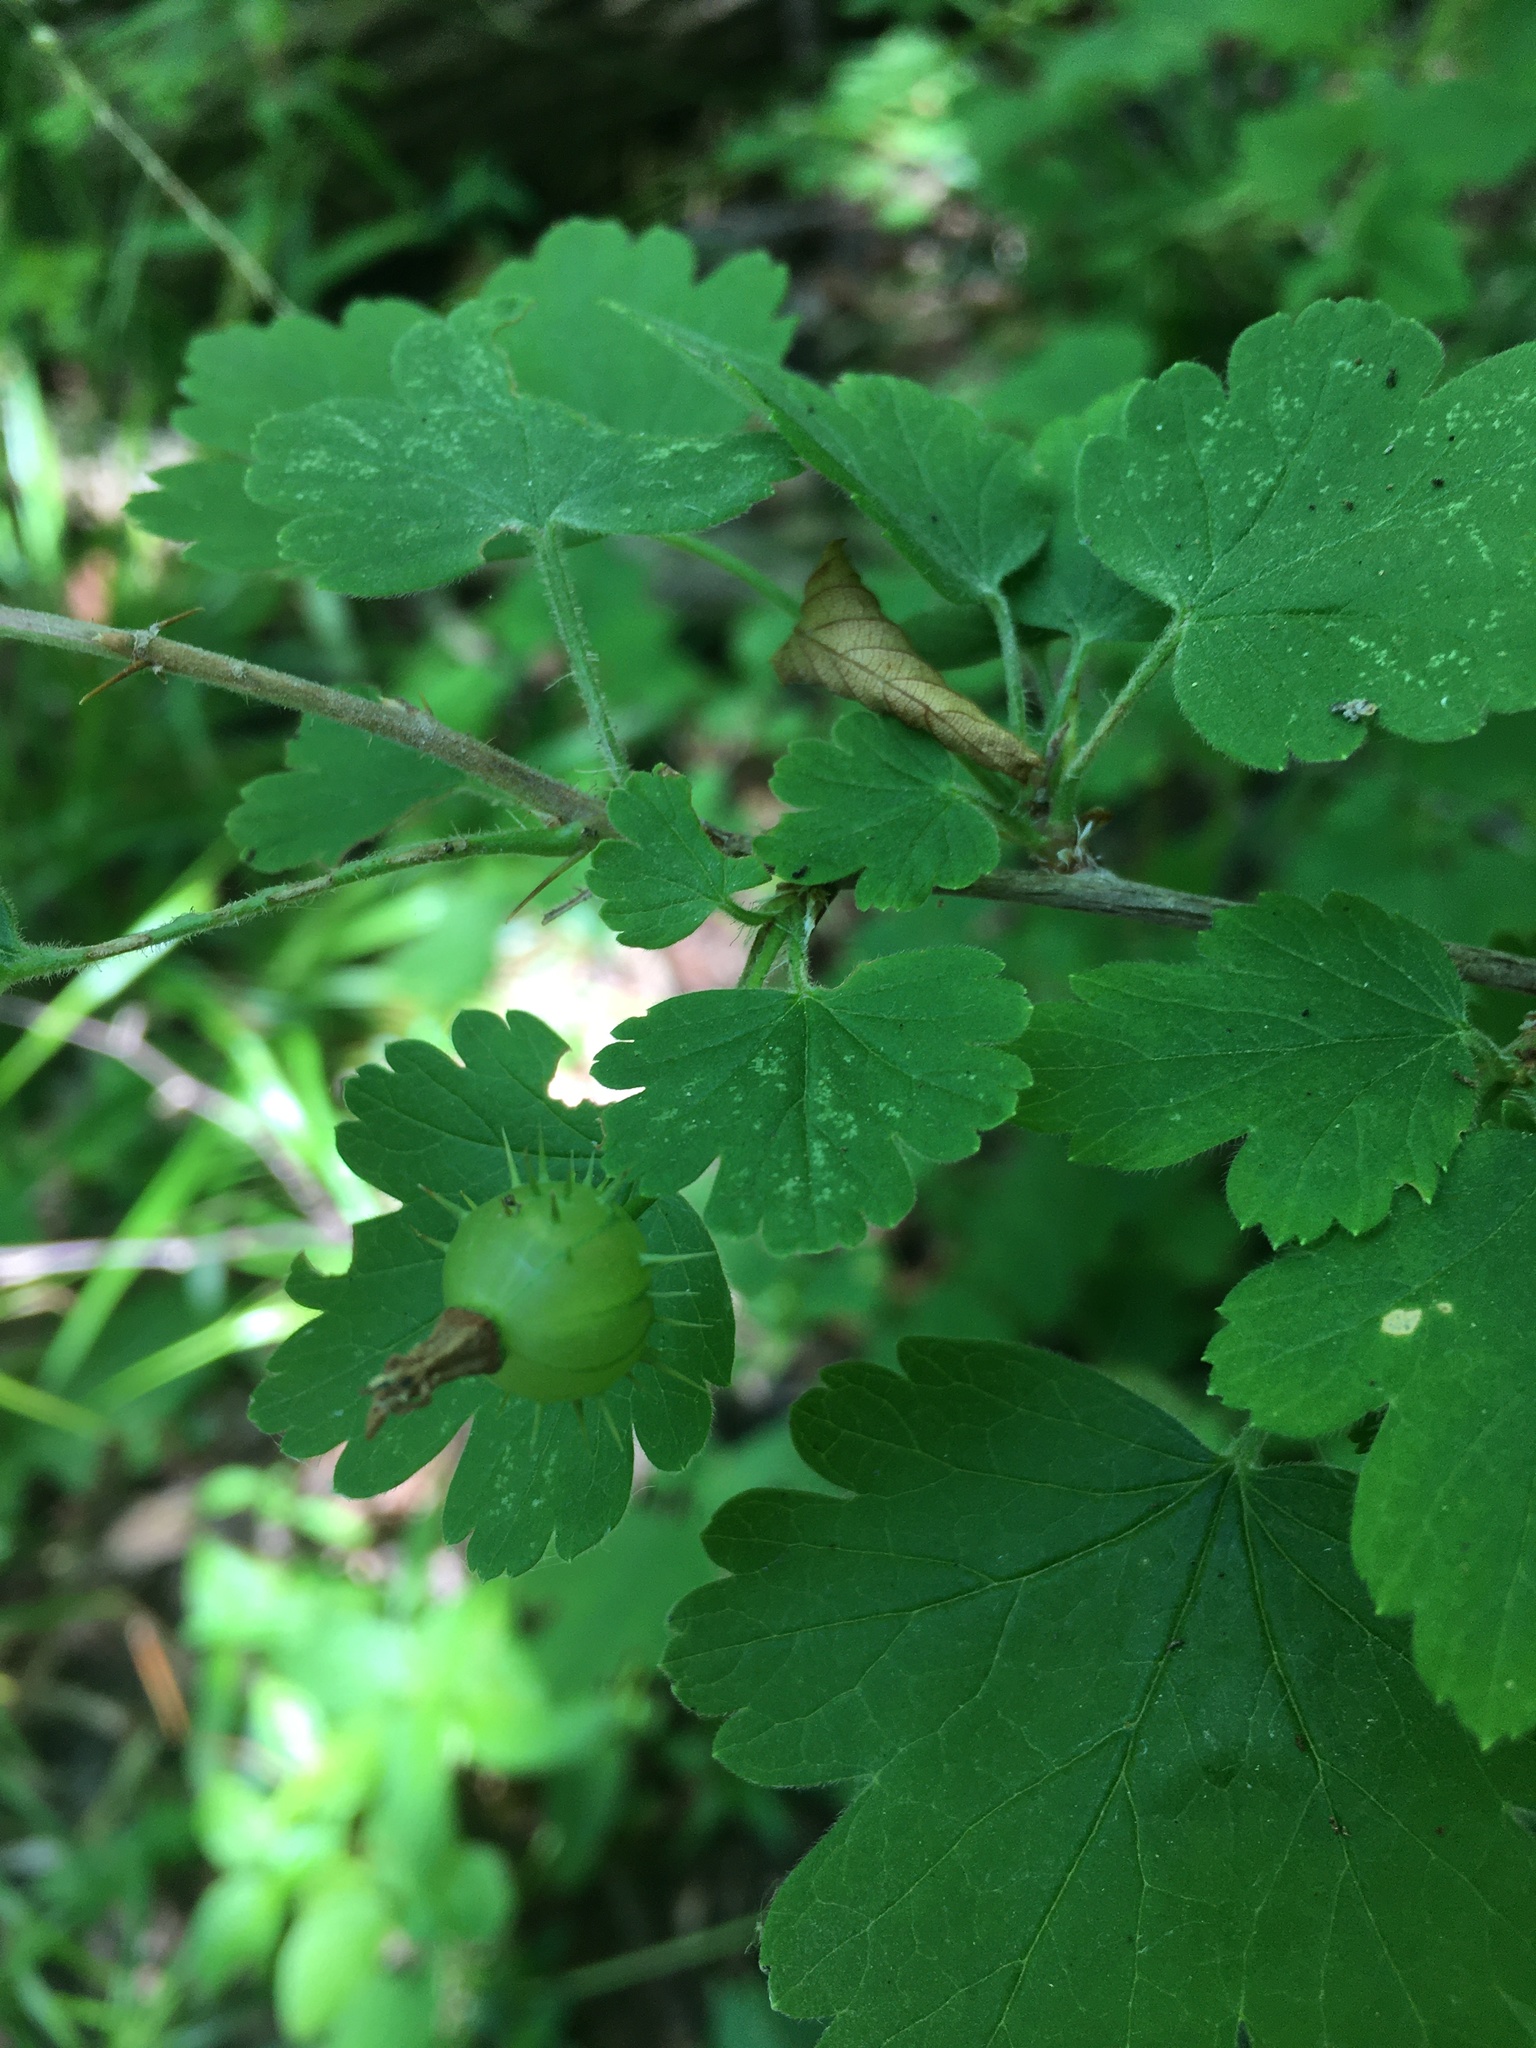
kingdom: Plantae
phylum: Tracheophyta
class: Magnoliopsida
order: Saxifragales
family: Grossulariaceae
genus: Ribes
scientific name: Ribes cynosbati
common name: American gooseberry
